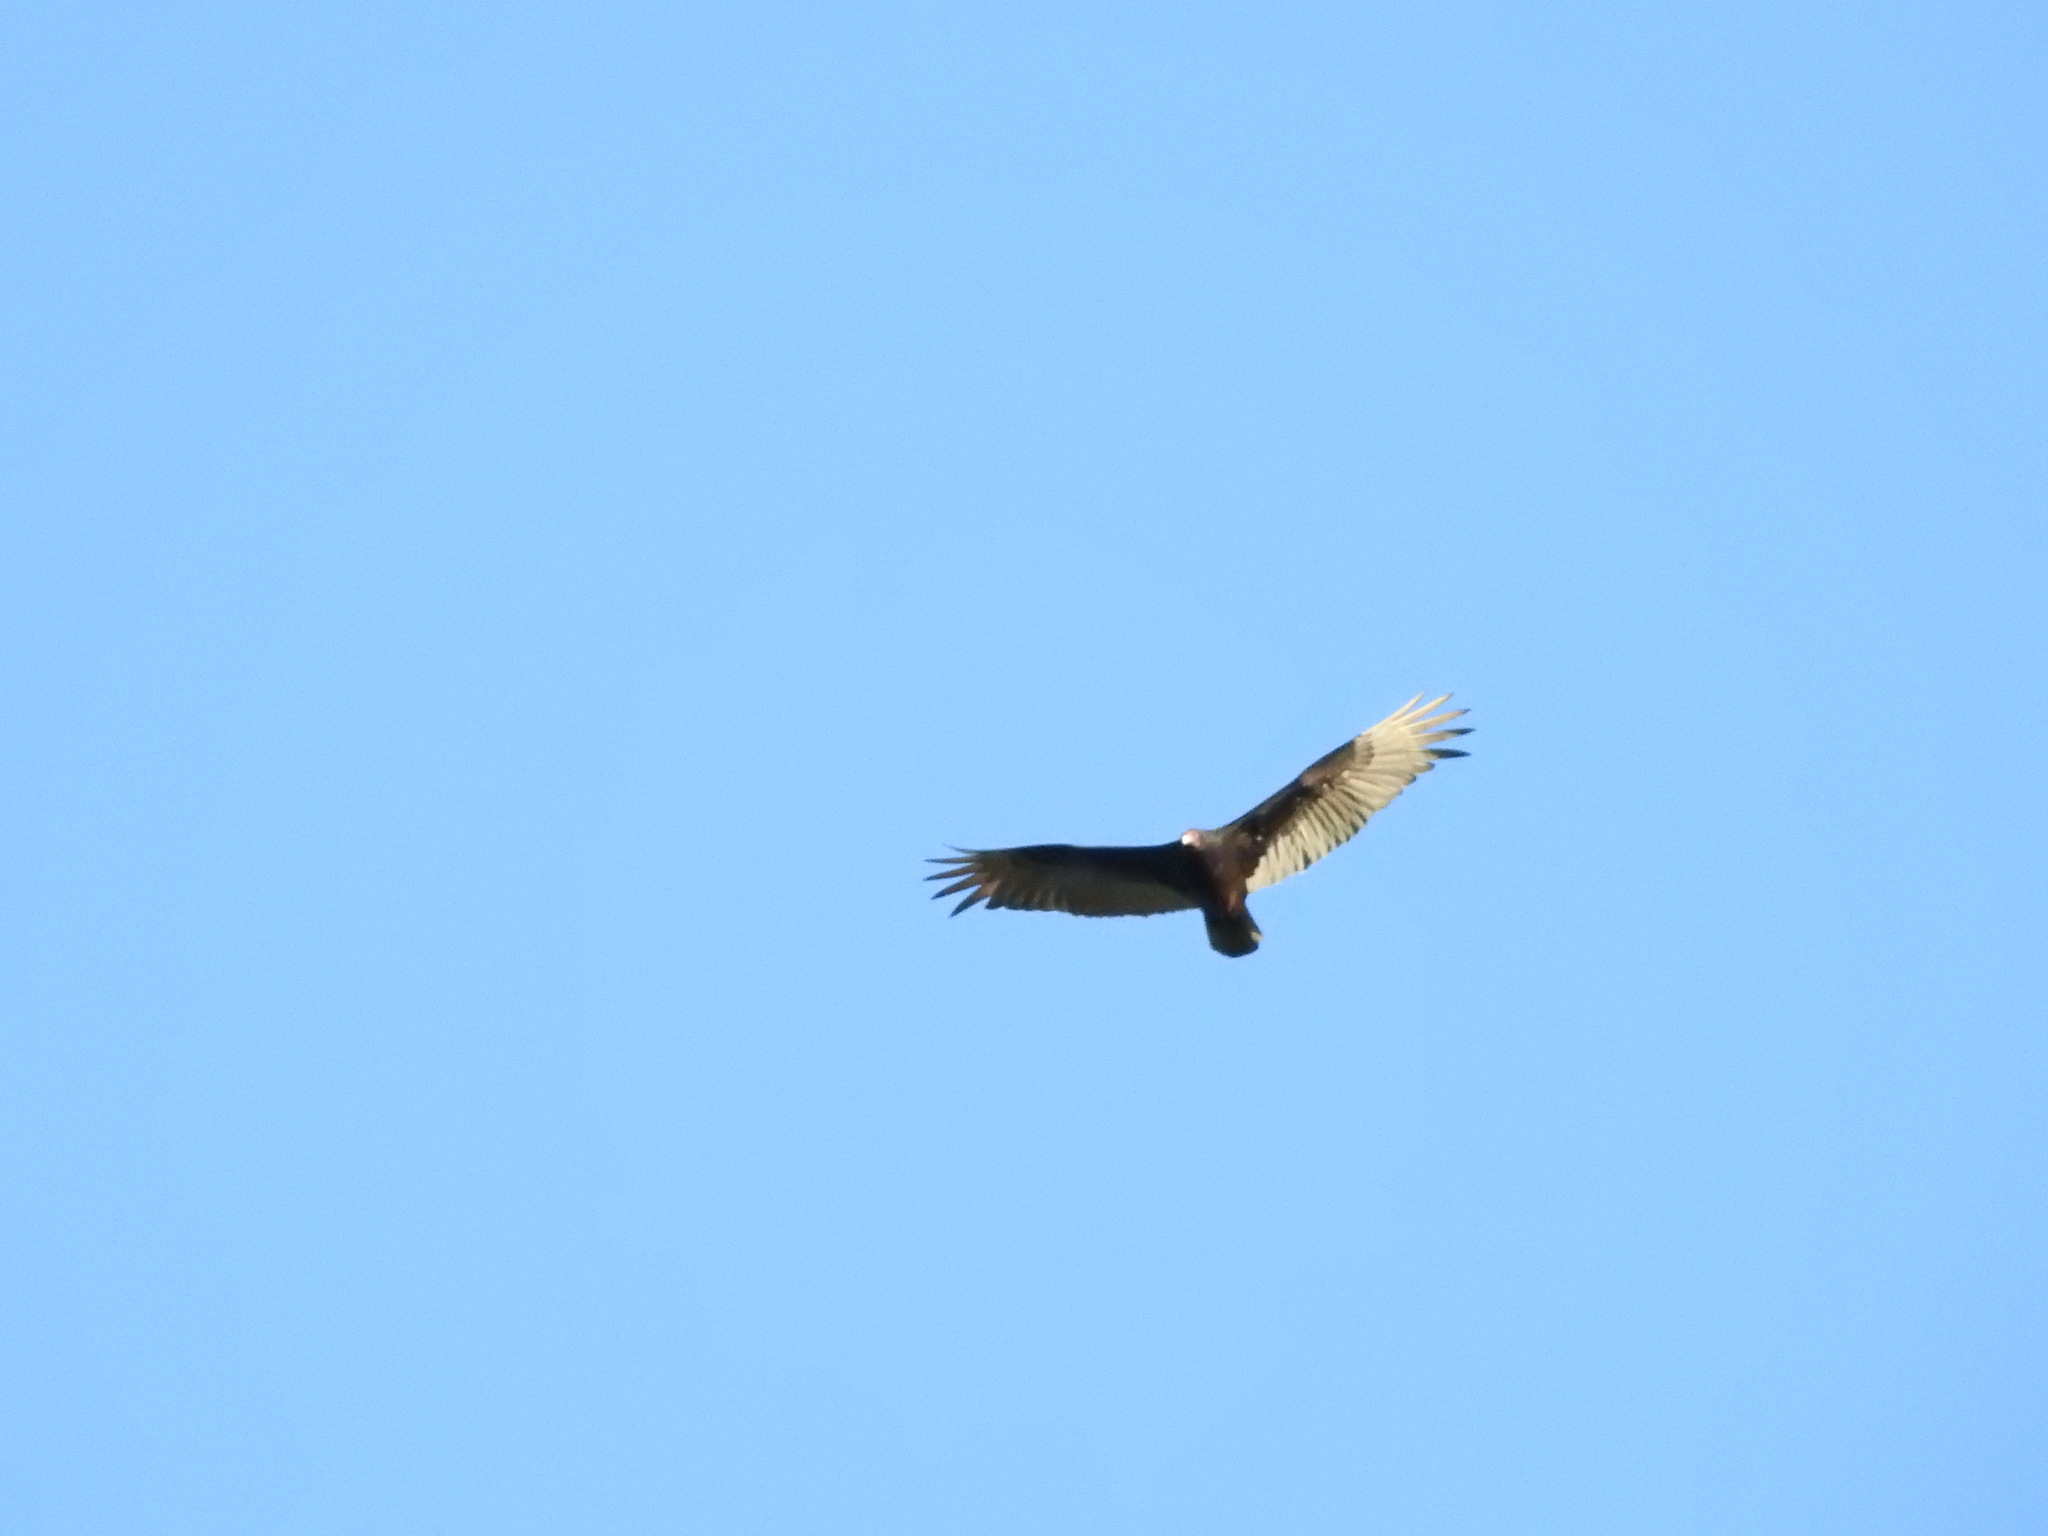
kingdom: Animalia
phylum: Chordata
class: Aves
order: Accipitriformes
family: Cathartidae
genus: Cathartes
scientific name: Cathartes aura
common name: Turkey vulture
